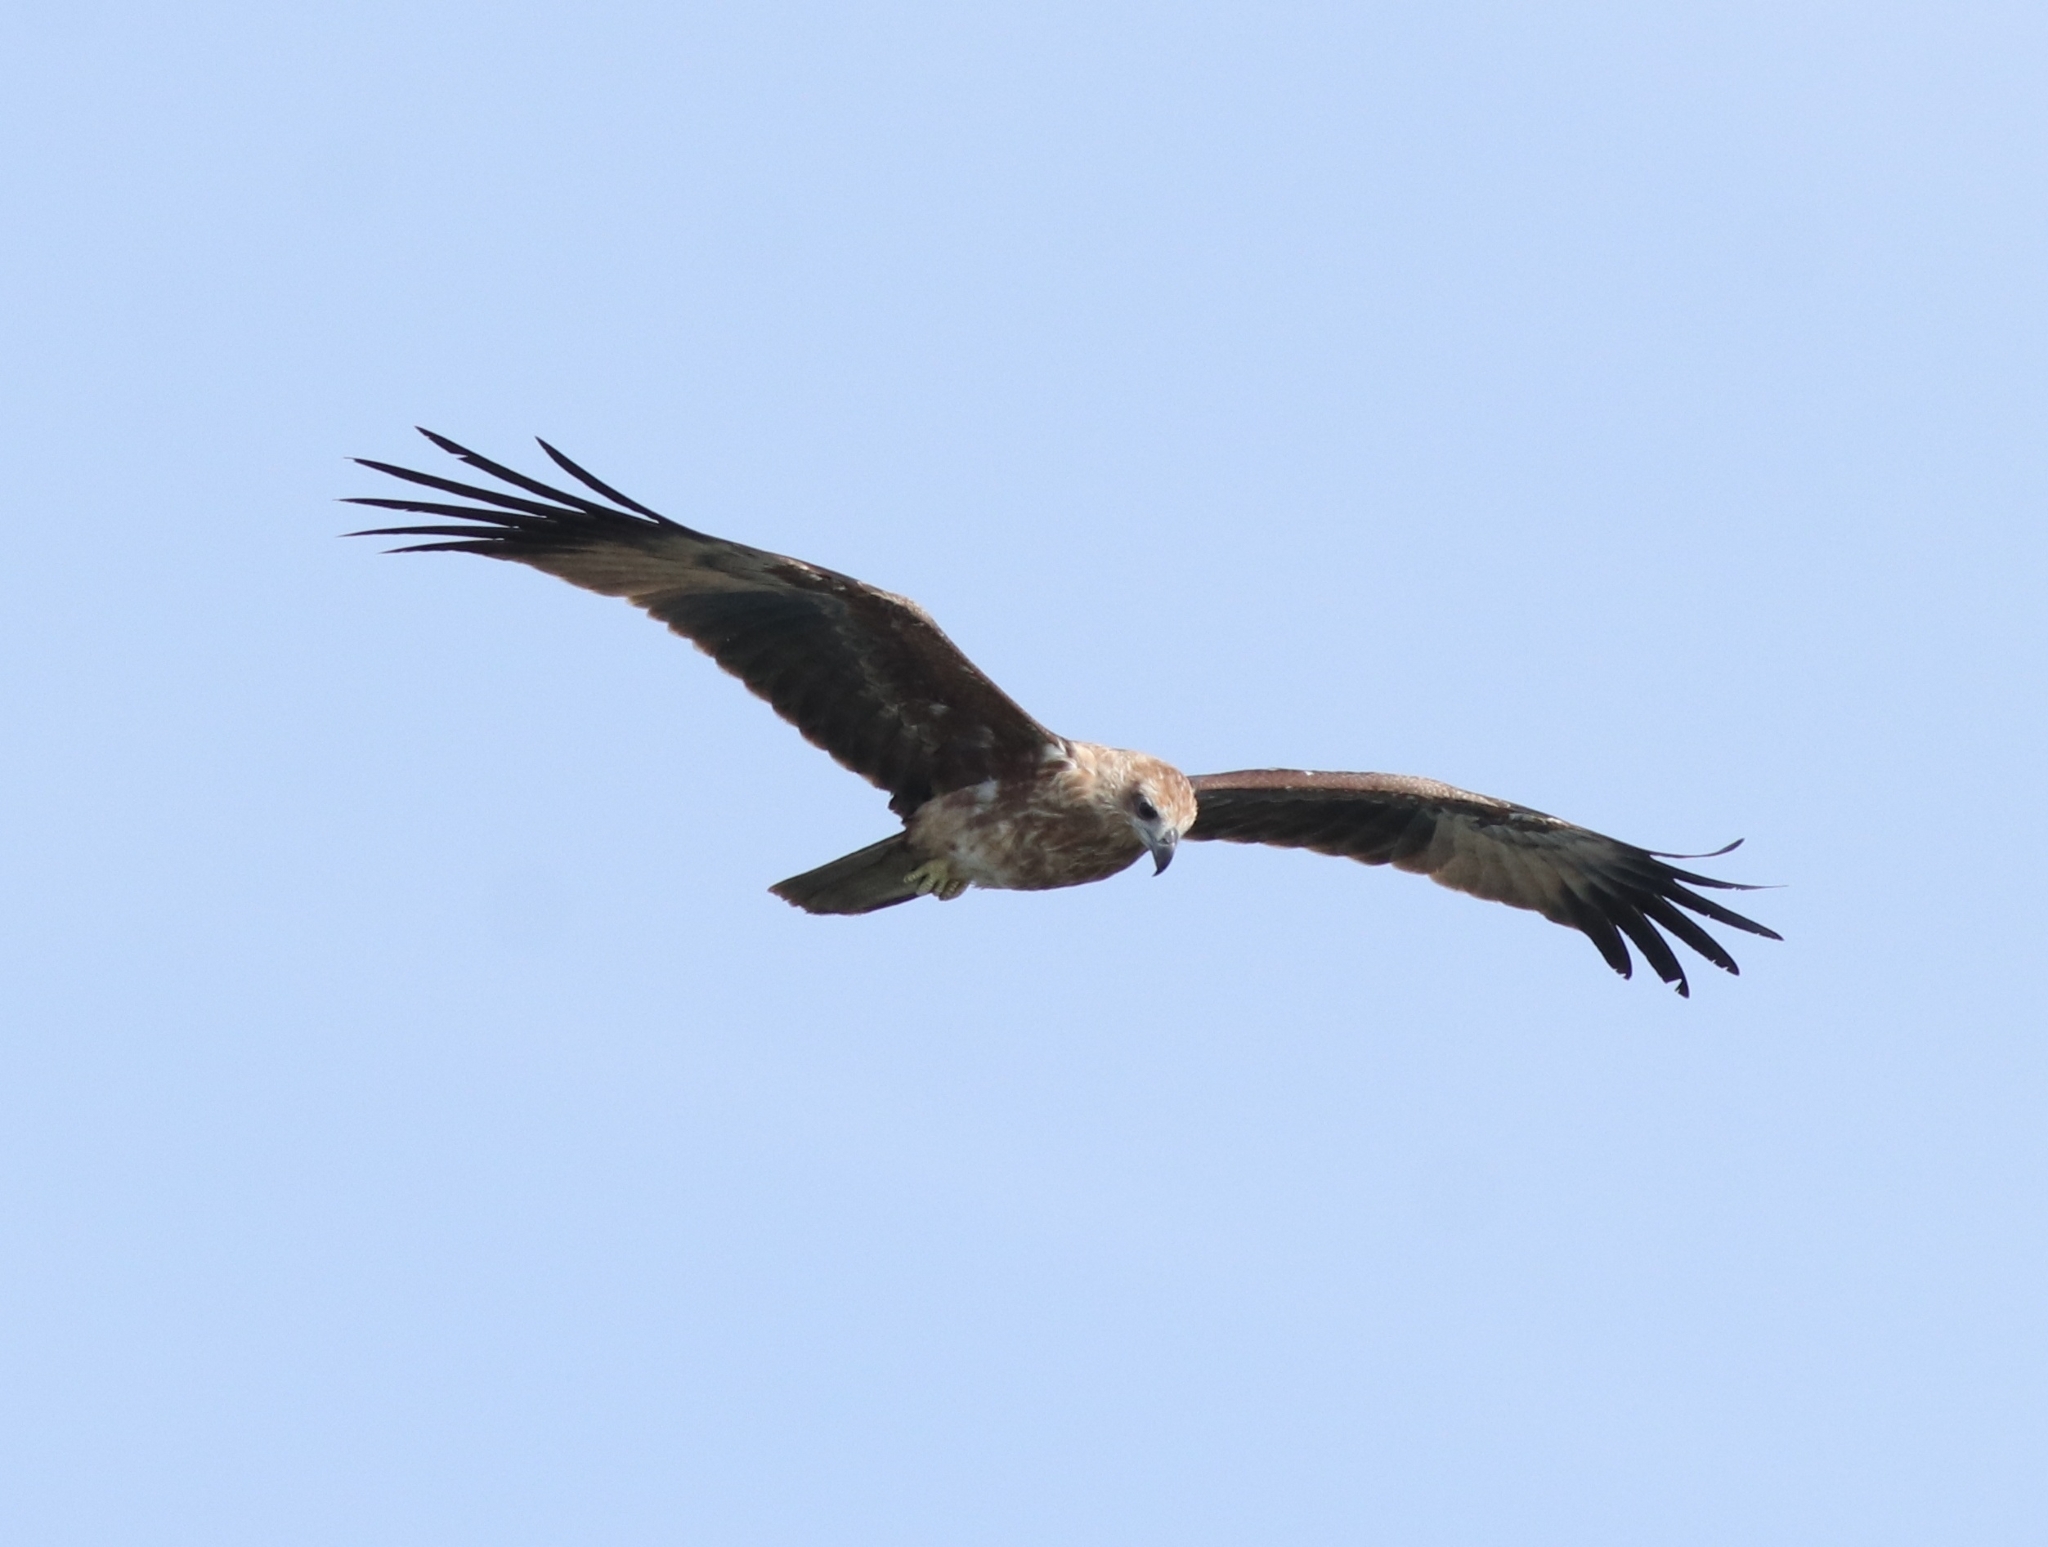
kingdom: Animalia
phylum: Chordata
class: Aves
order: Accipitriformes
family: Accipitridae
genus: Haliastur
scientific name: Haliastur indus
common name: Brahminy kite
